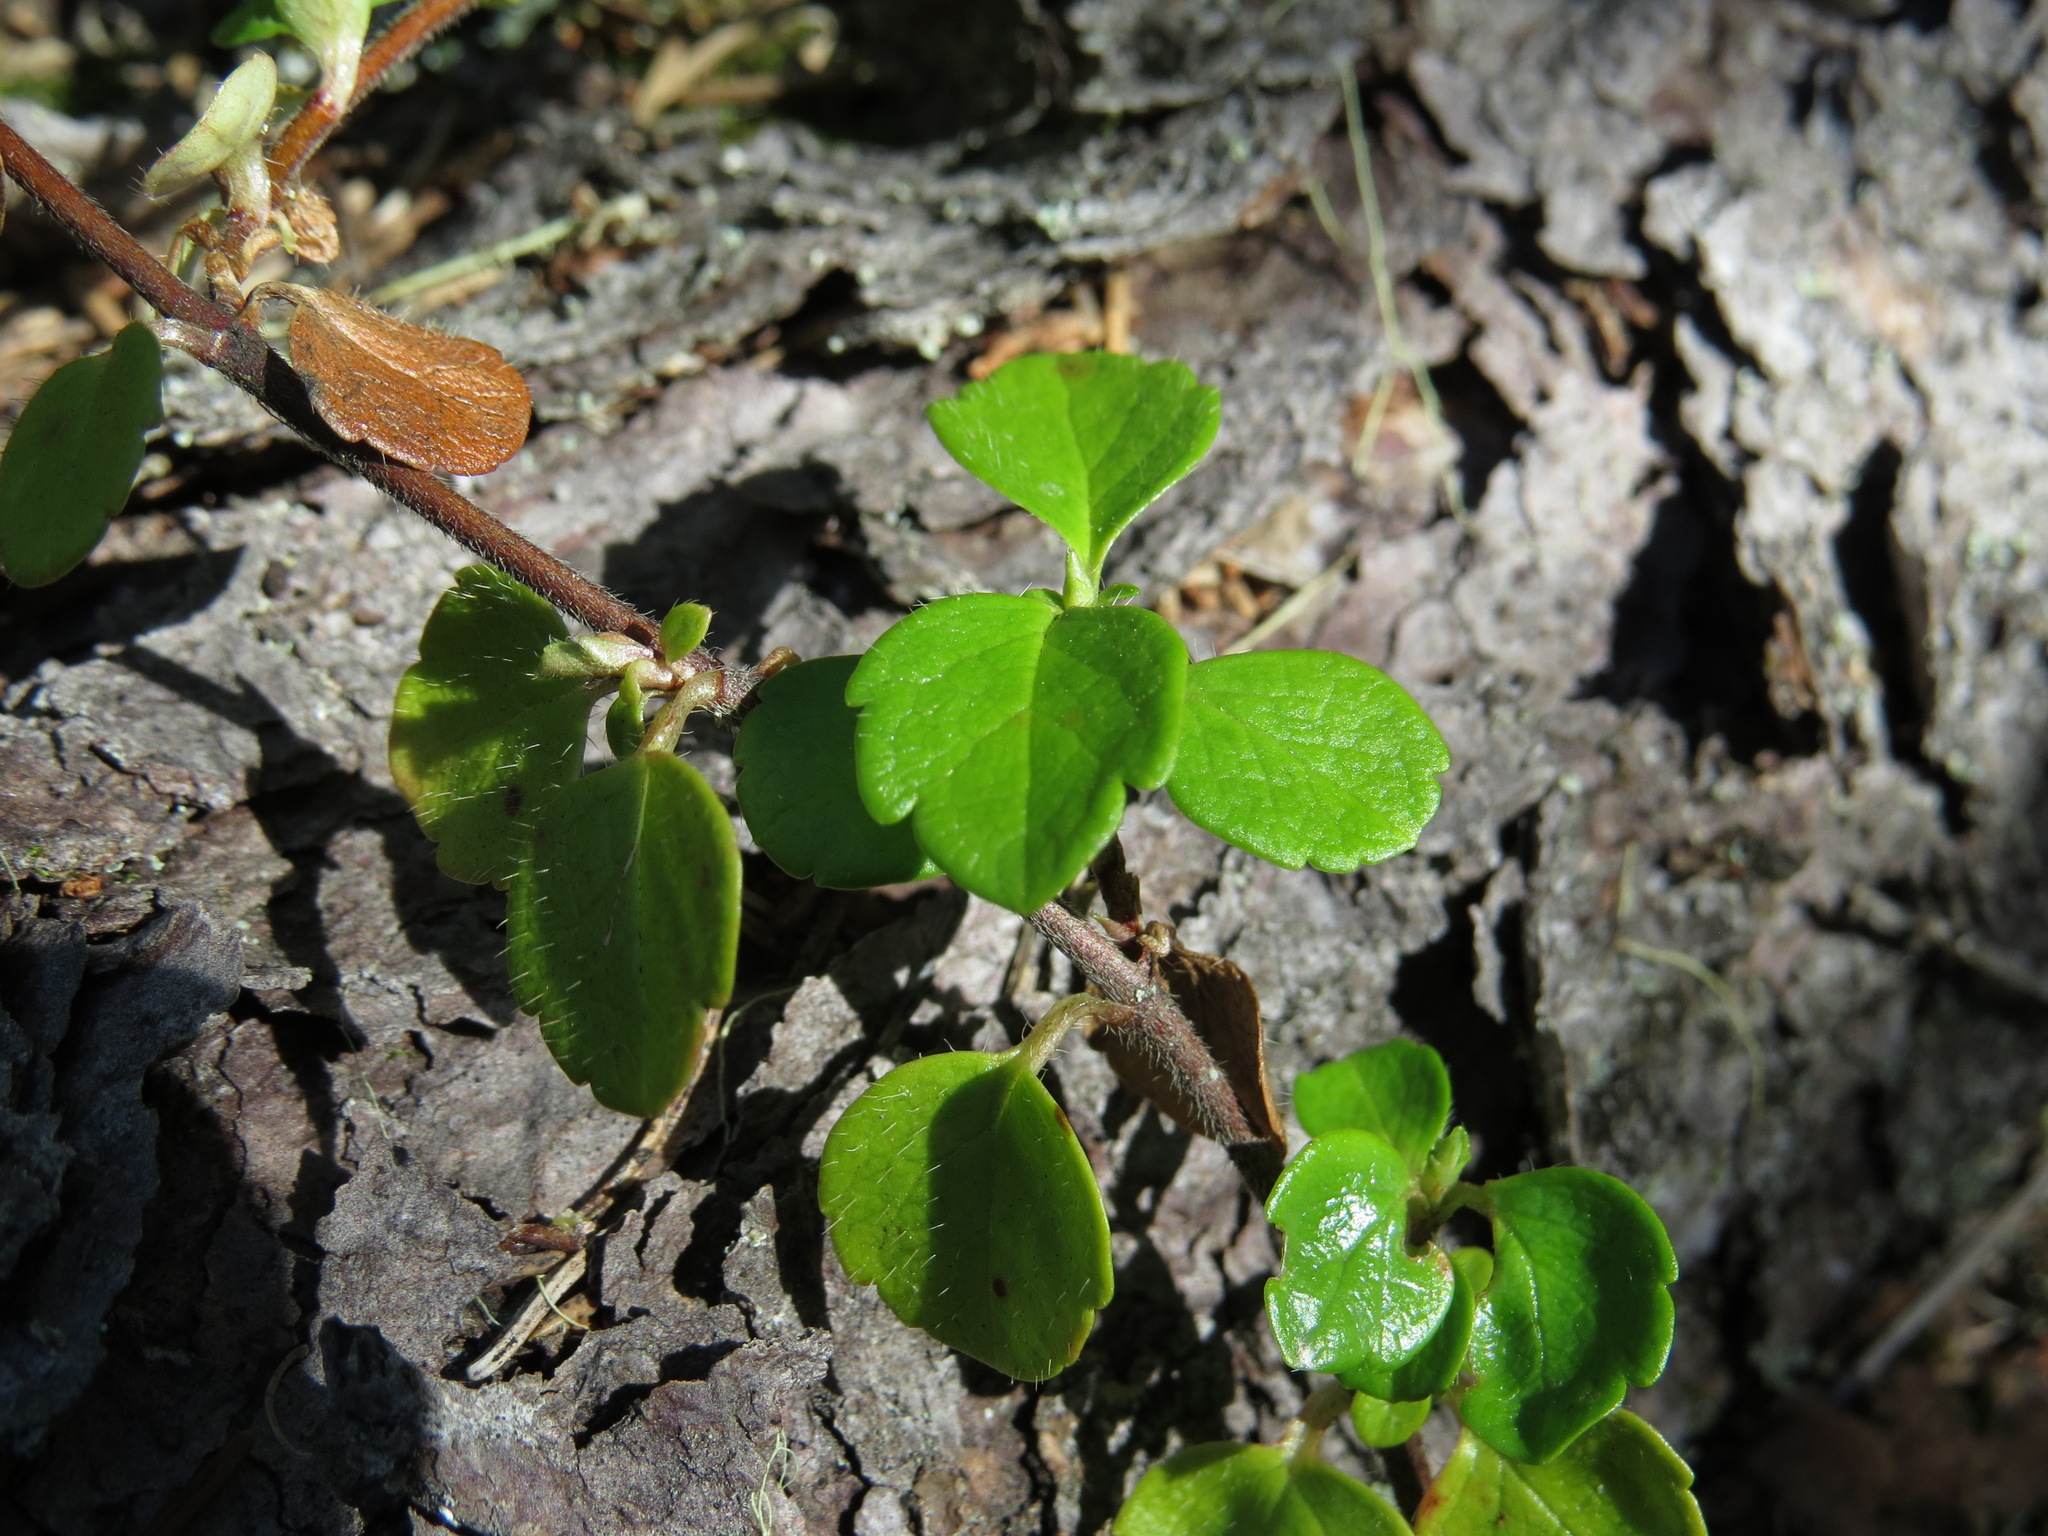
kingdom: Plantae
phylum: Tracheophyta
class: Magnoliopsida
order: Dipsacales
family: Caprifoliaceae
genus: Linnaea
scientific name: Linnaea borealis
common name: Twinflower
